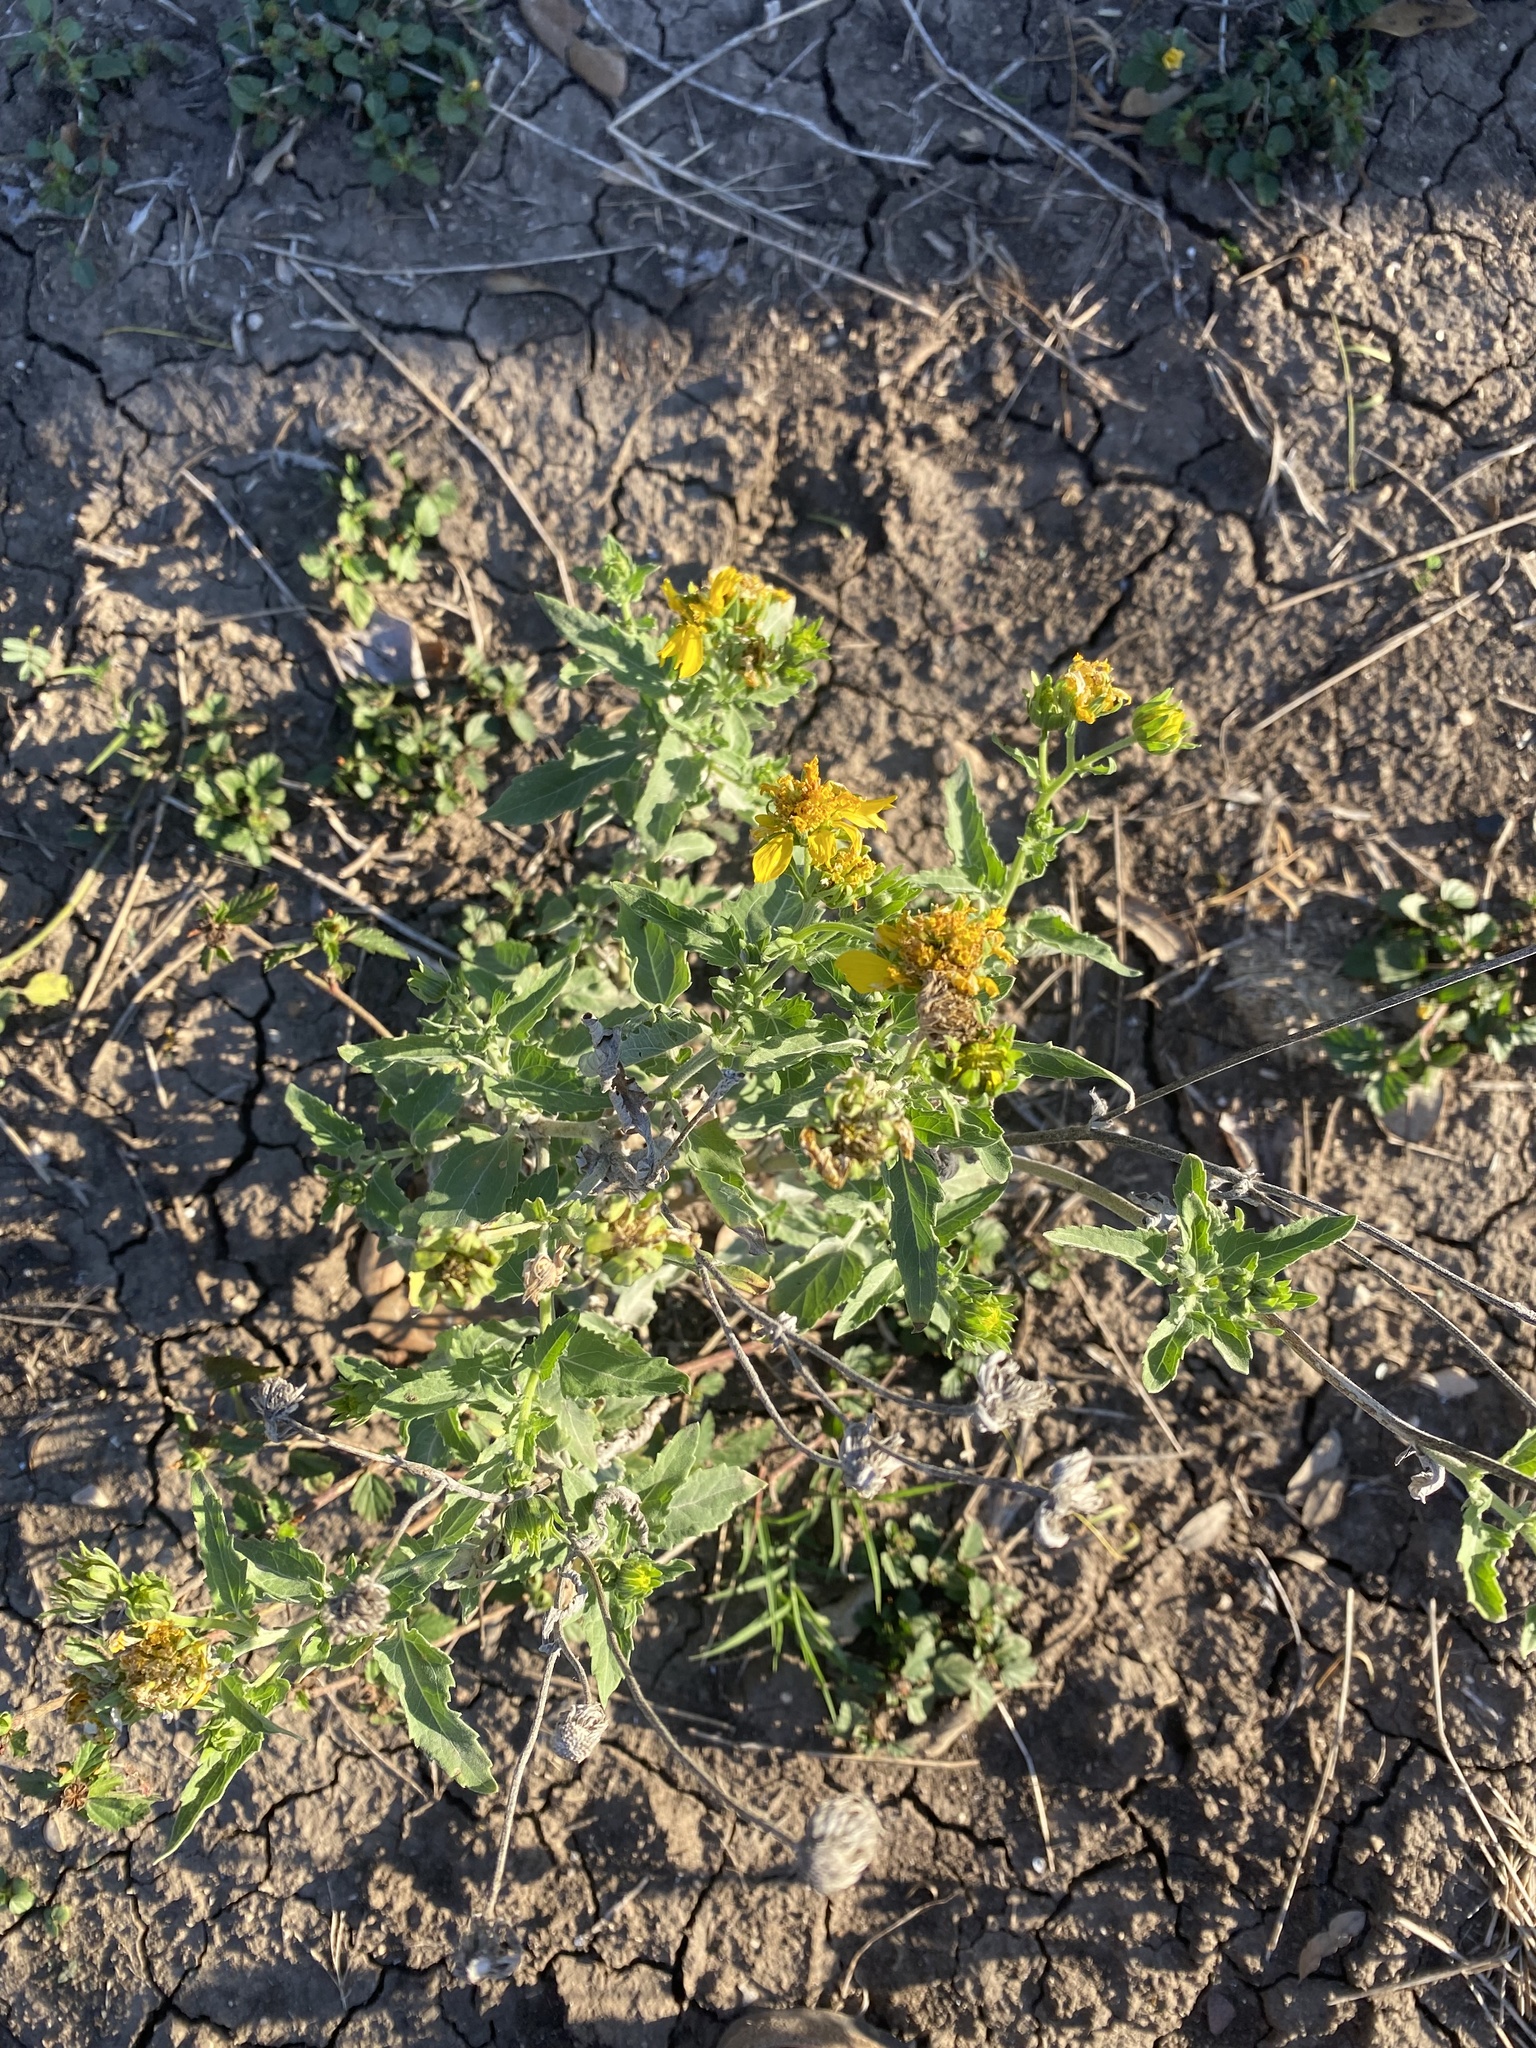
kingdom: Plantae
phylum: Tracheophyta
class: Magnoliopsida
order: Asterales
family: Asteraceae
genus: Verbesina
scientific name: Verbesina encelioides
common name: Golden crownbeard
